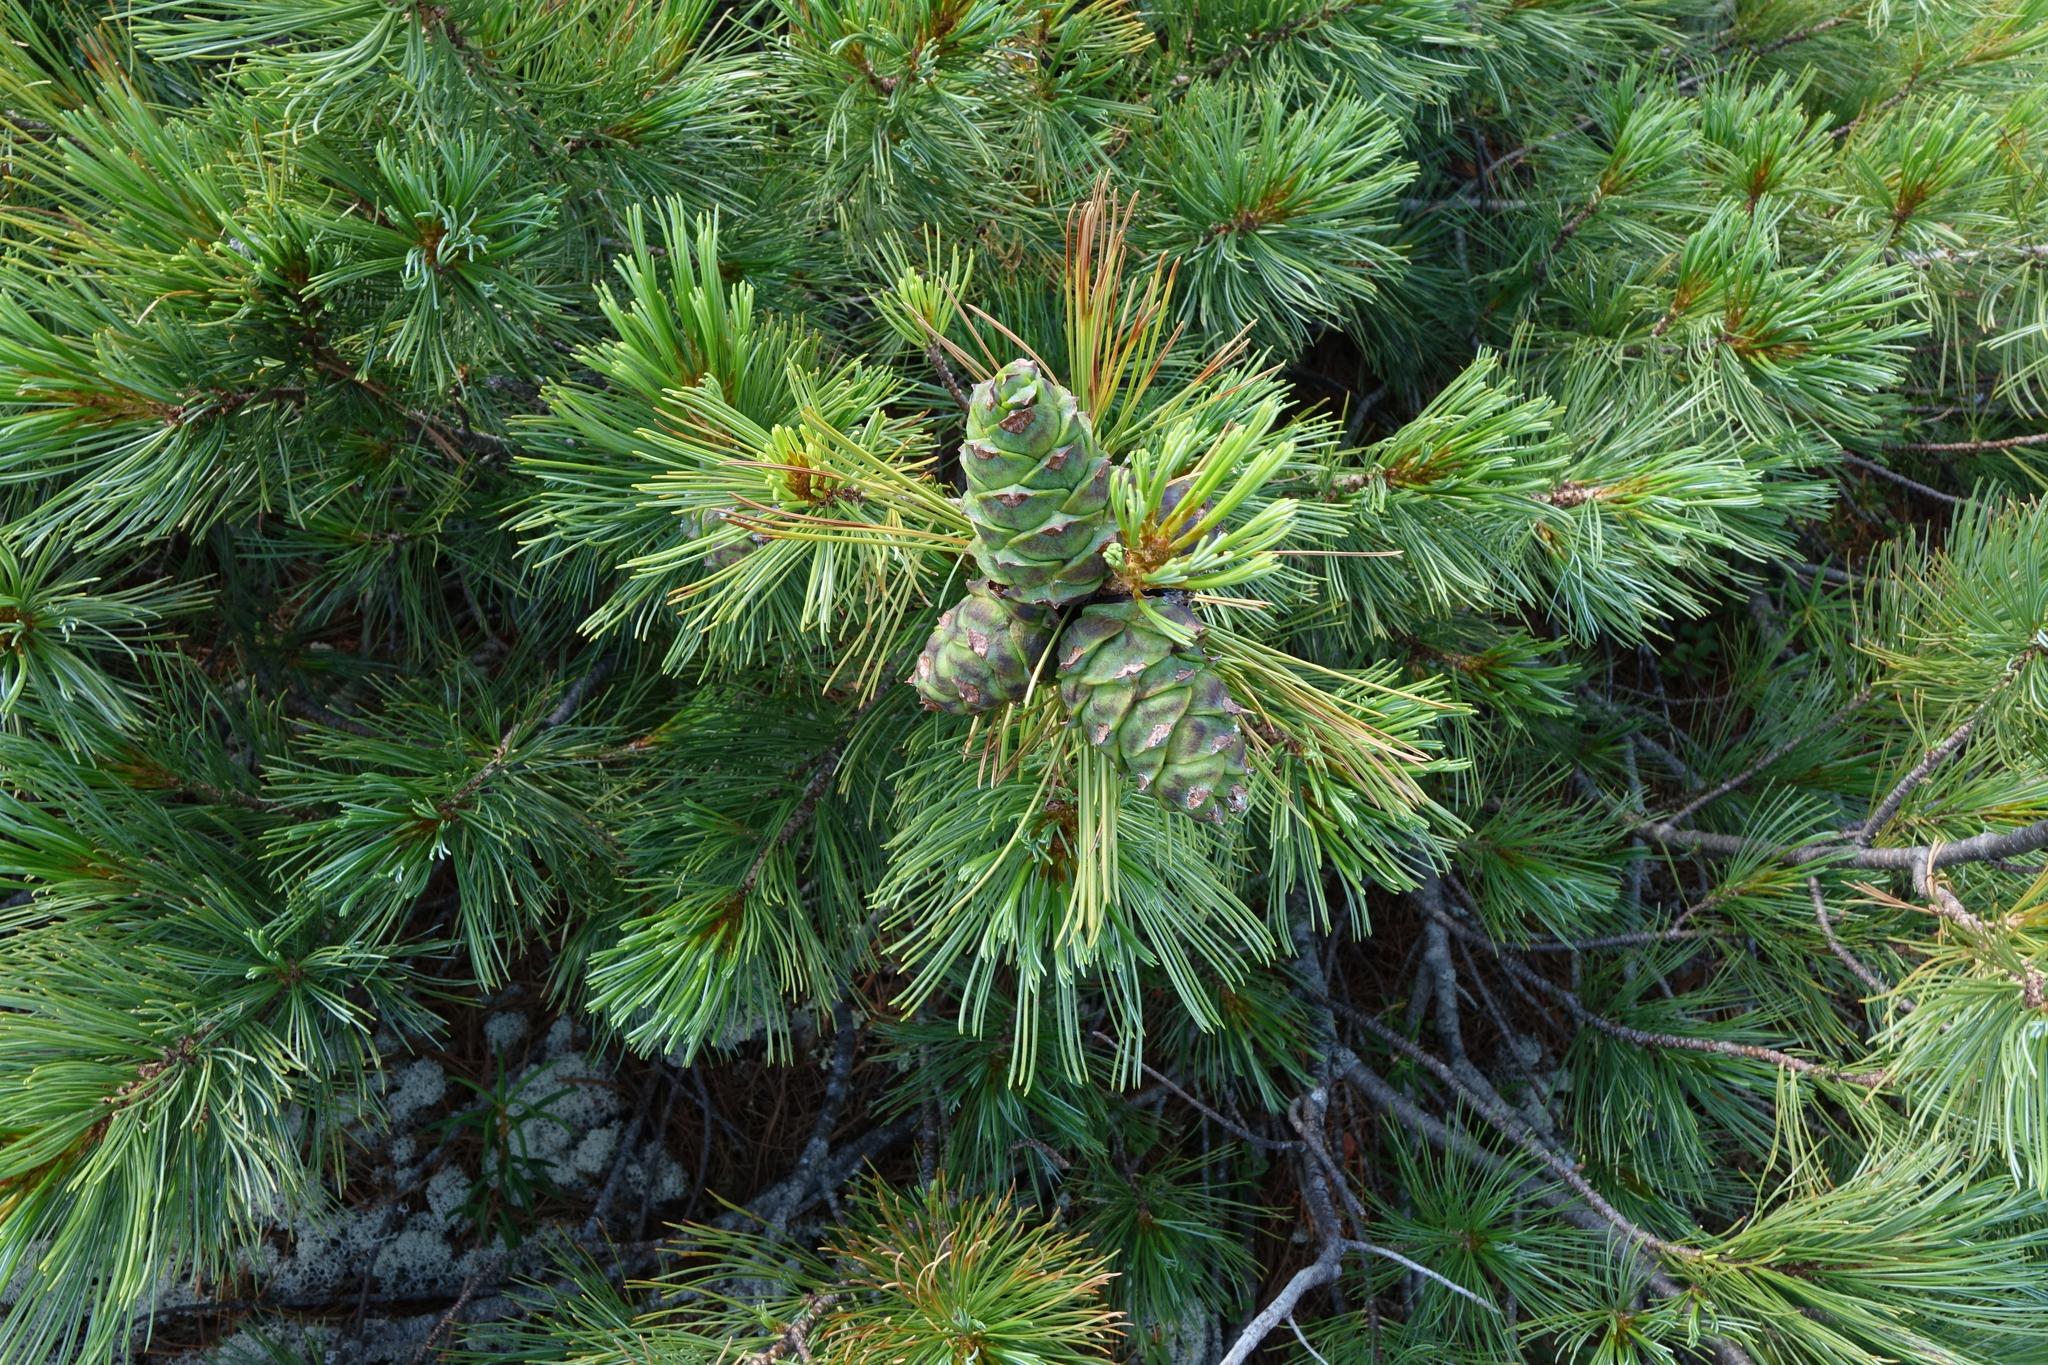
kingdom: Plantae
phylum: Tracheophyta
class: Pinopsida
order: Pinales
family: Pinaceae
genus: Pinus
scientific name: Pinus pumila
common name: Dwarf siberian pine
